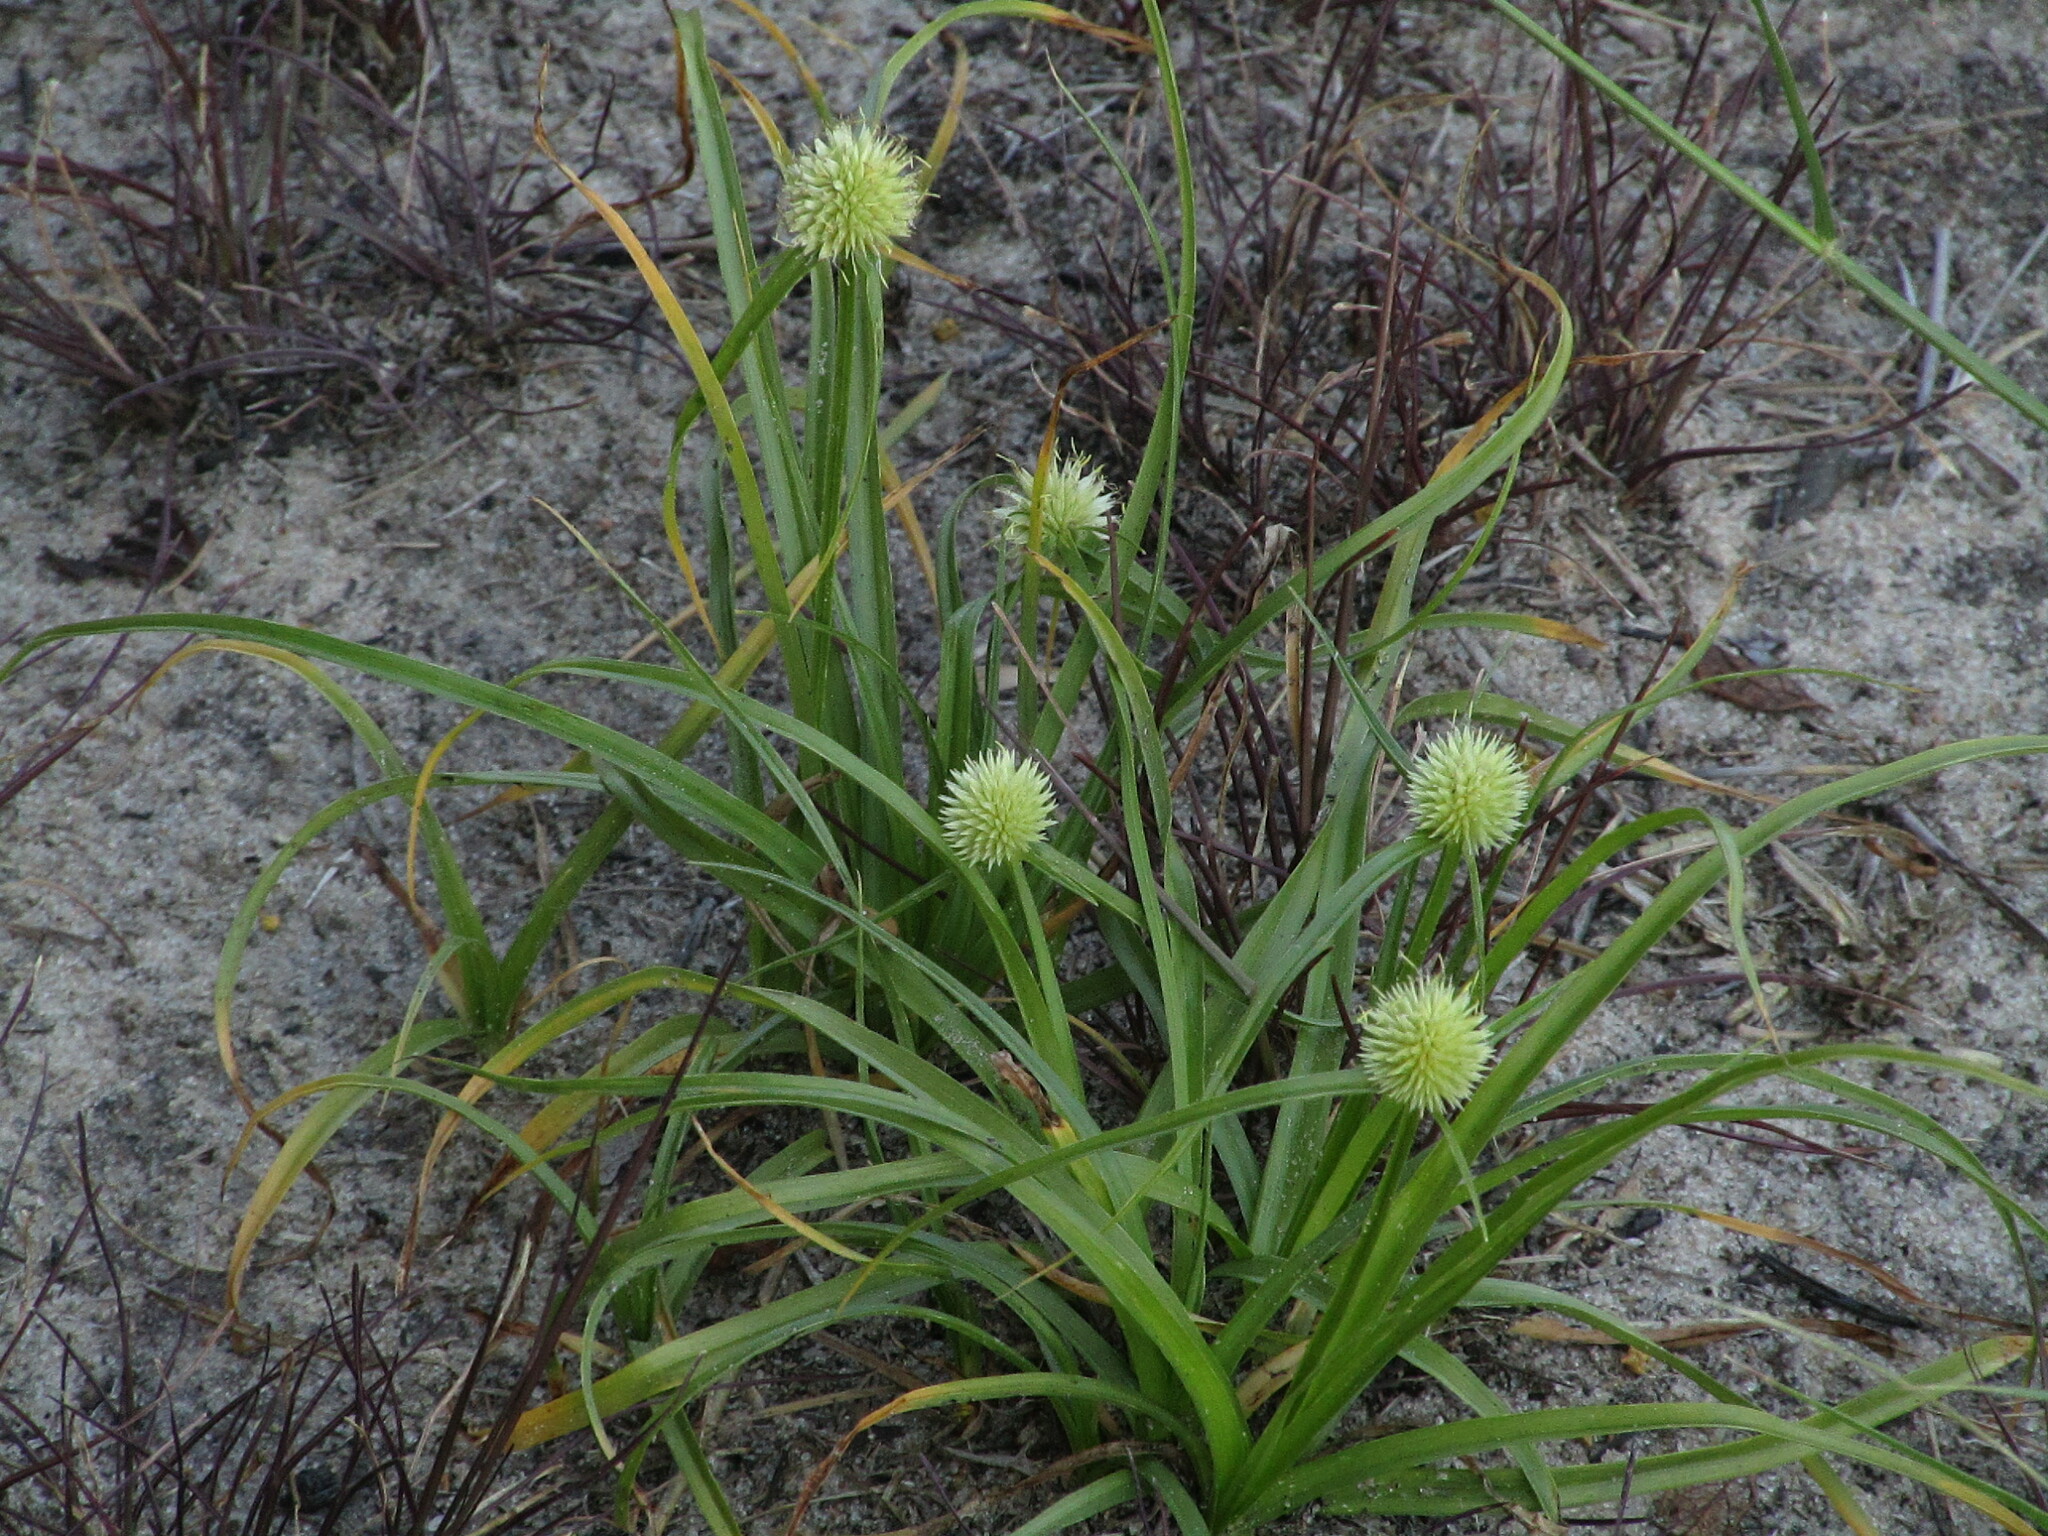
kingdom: Plantae
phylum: Tracheophyta
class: Liliopsida
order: Poales
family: Cyperaceae
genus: Cyperus
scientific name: Cyperus alatus
